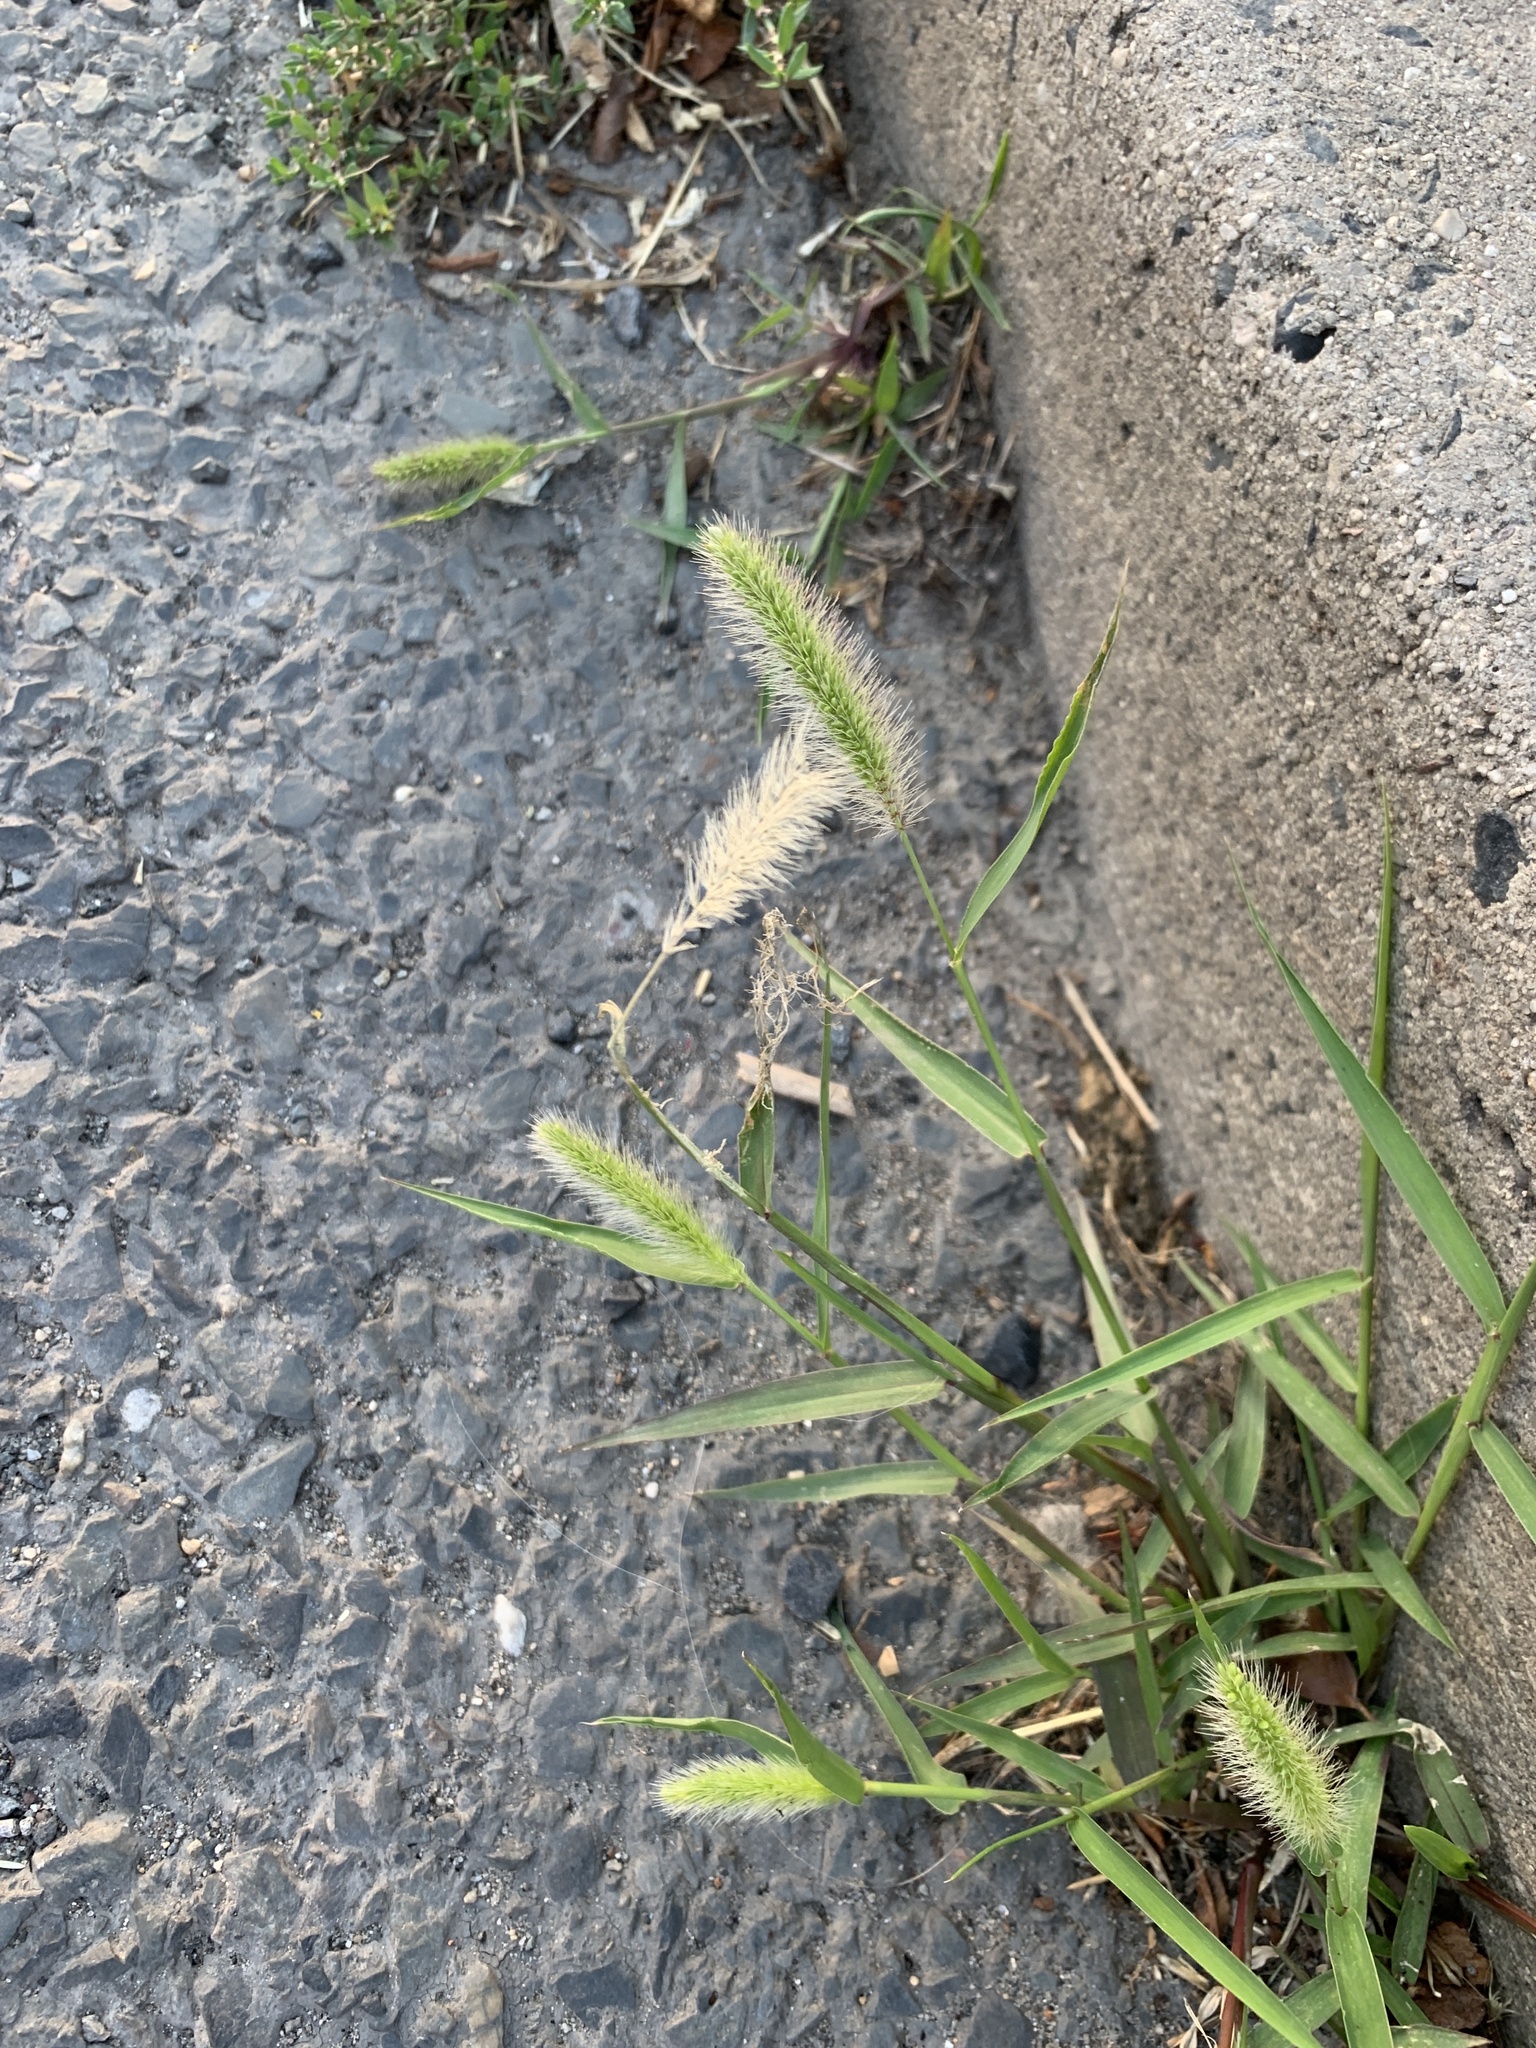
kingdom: Plantae
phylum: Tracheophyta
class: Liliopsida
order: Poales
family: Poaceae
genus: Setaria
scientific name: Setaria viridis
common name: Green bristlegrass
